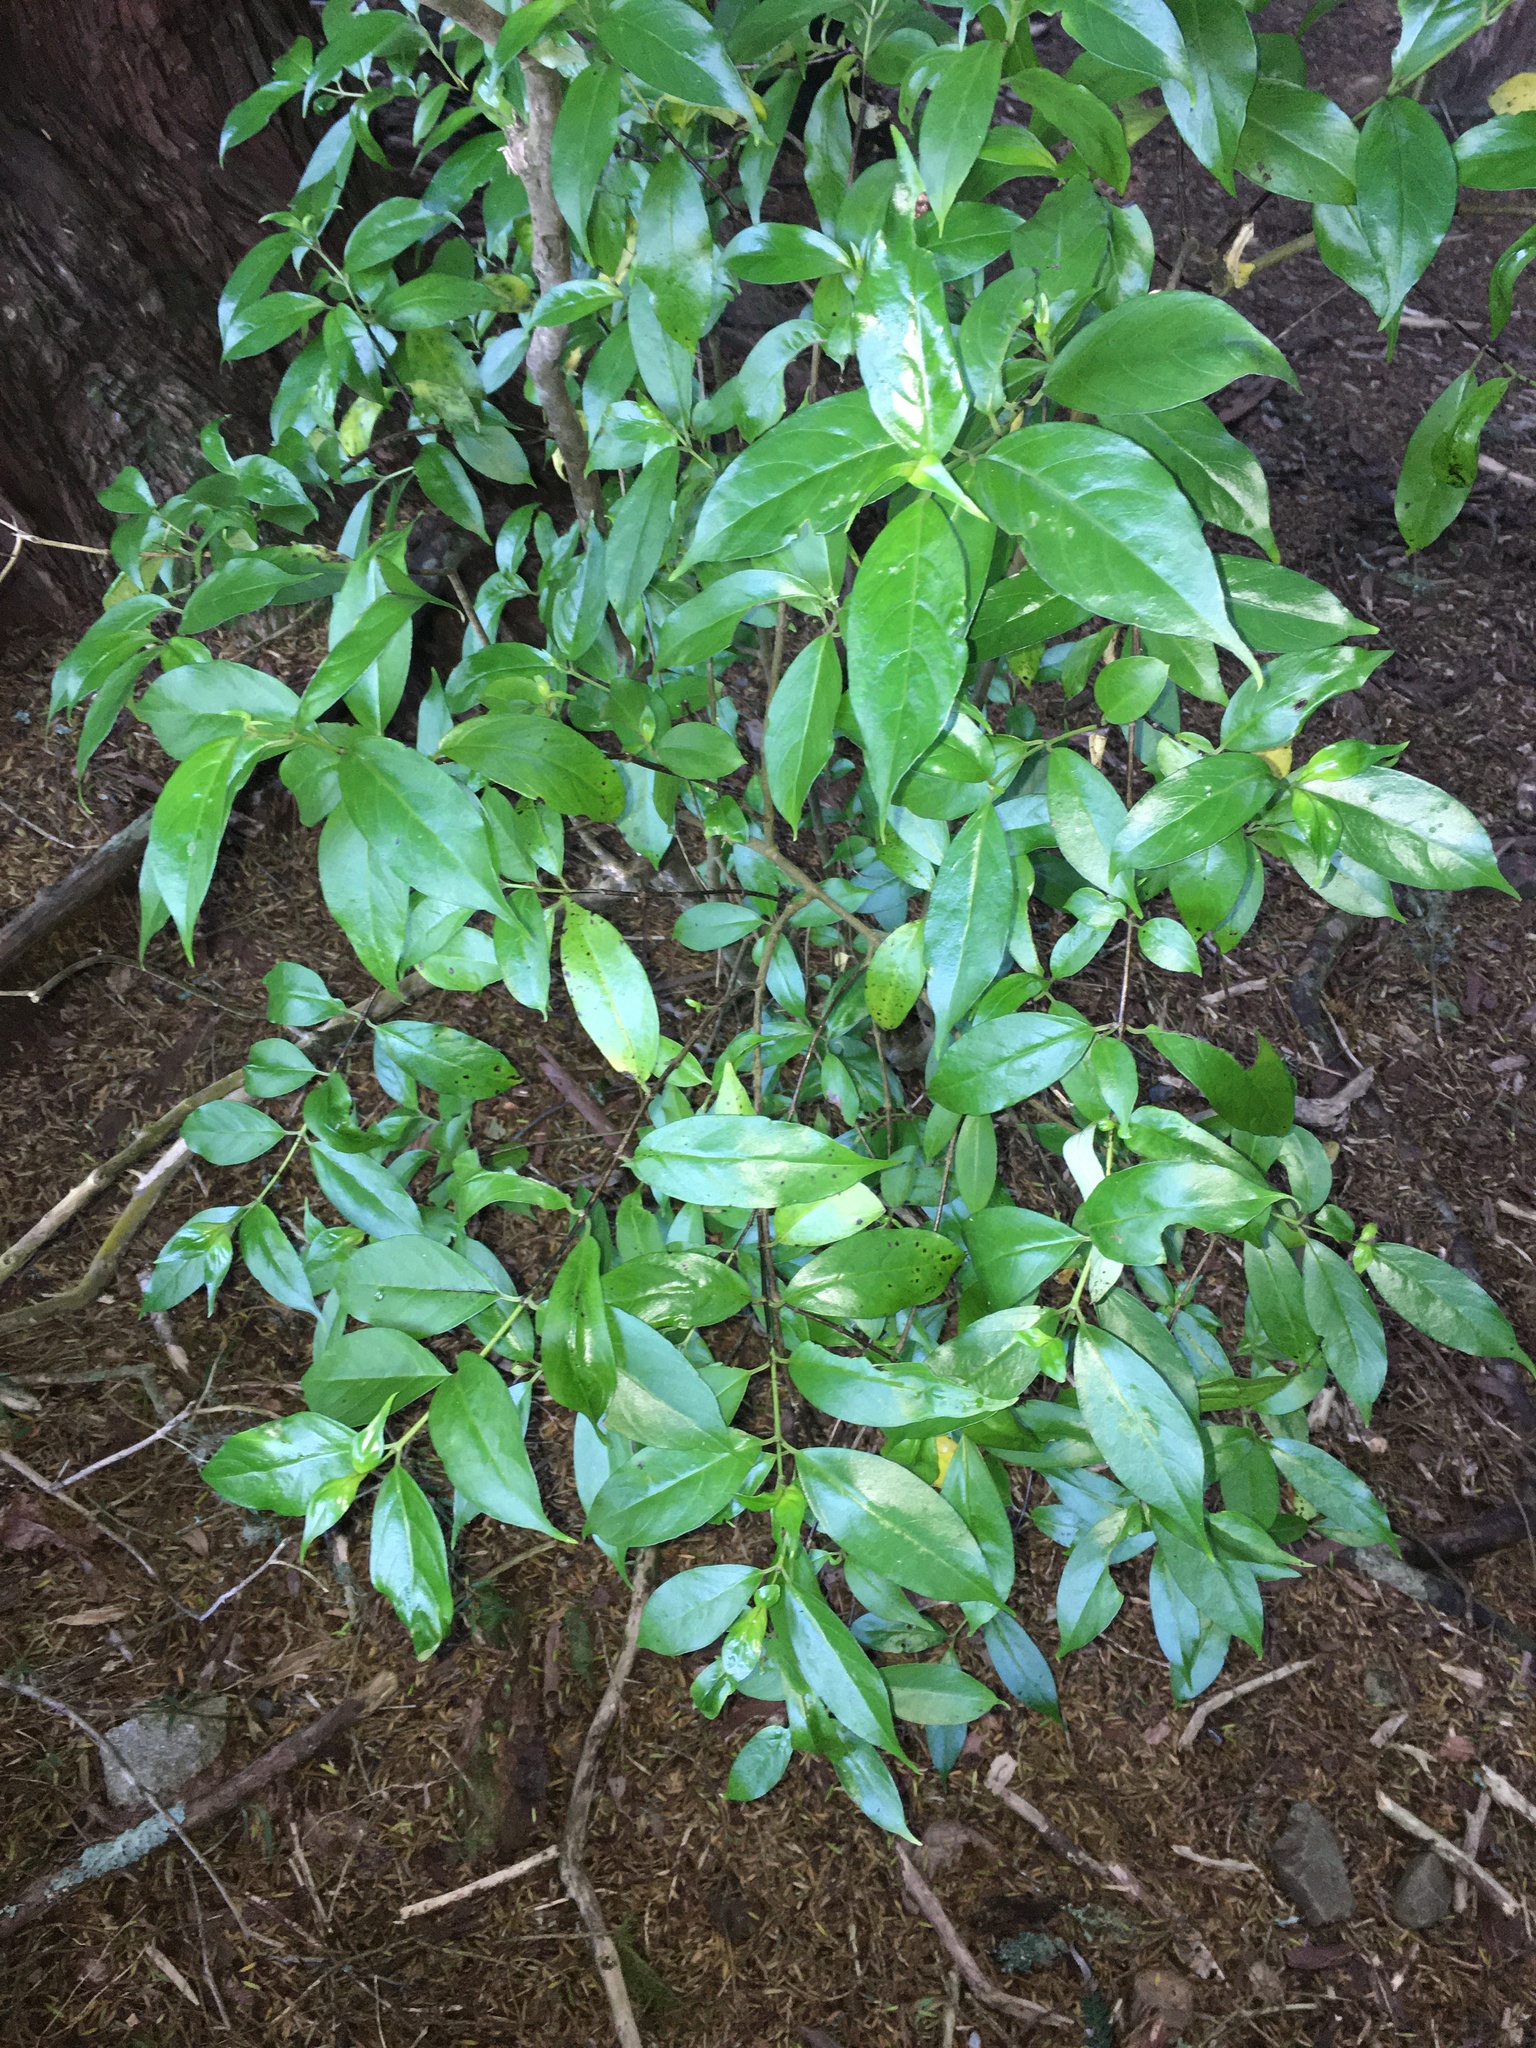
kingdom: Plantae
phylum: Tracheophyta
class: Magnoliopsida
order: Gentianales
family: Loganiaceae
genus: Geniostoma
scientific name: Geniostoma ligustrifolium
